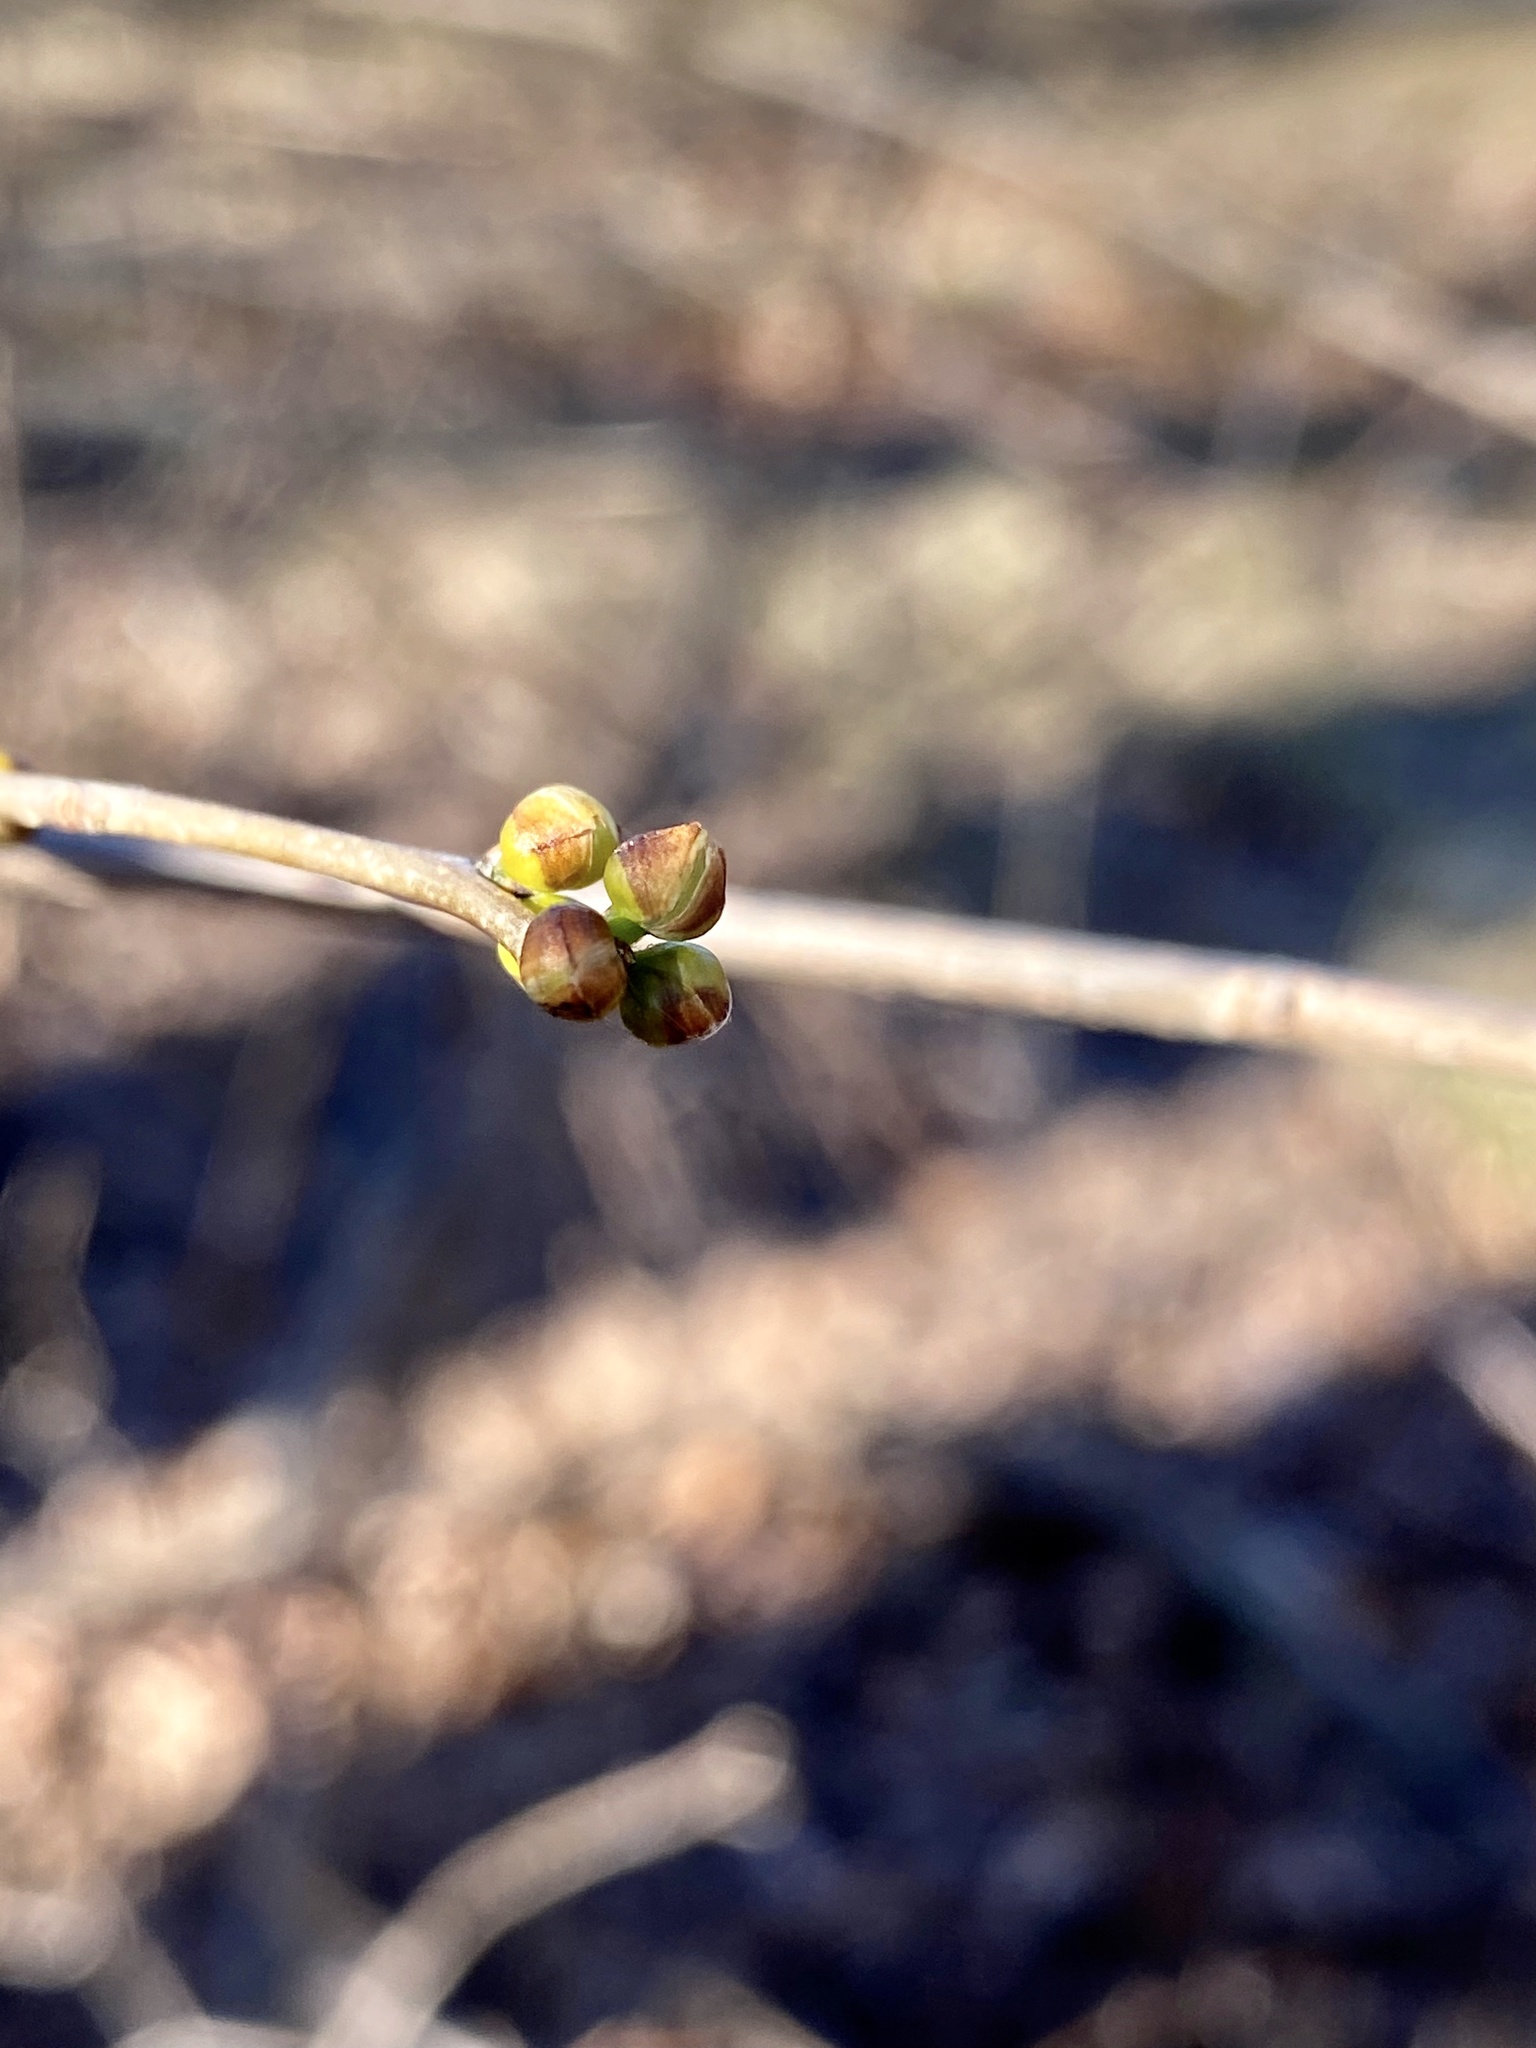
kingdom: Plantae
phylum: Tracheophyta
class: Magnoliopsida
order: Laurales
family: Lauraceae
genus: Lindera
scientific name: Lindera benzoin
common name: Spicebush
